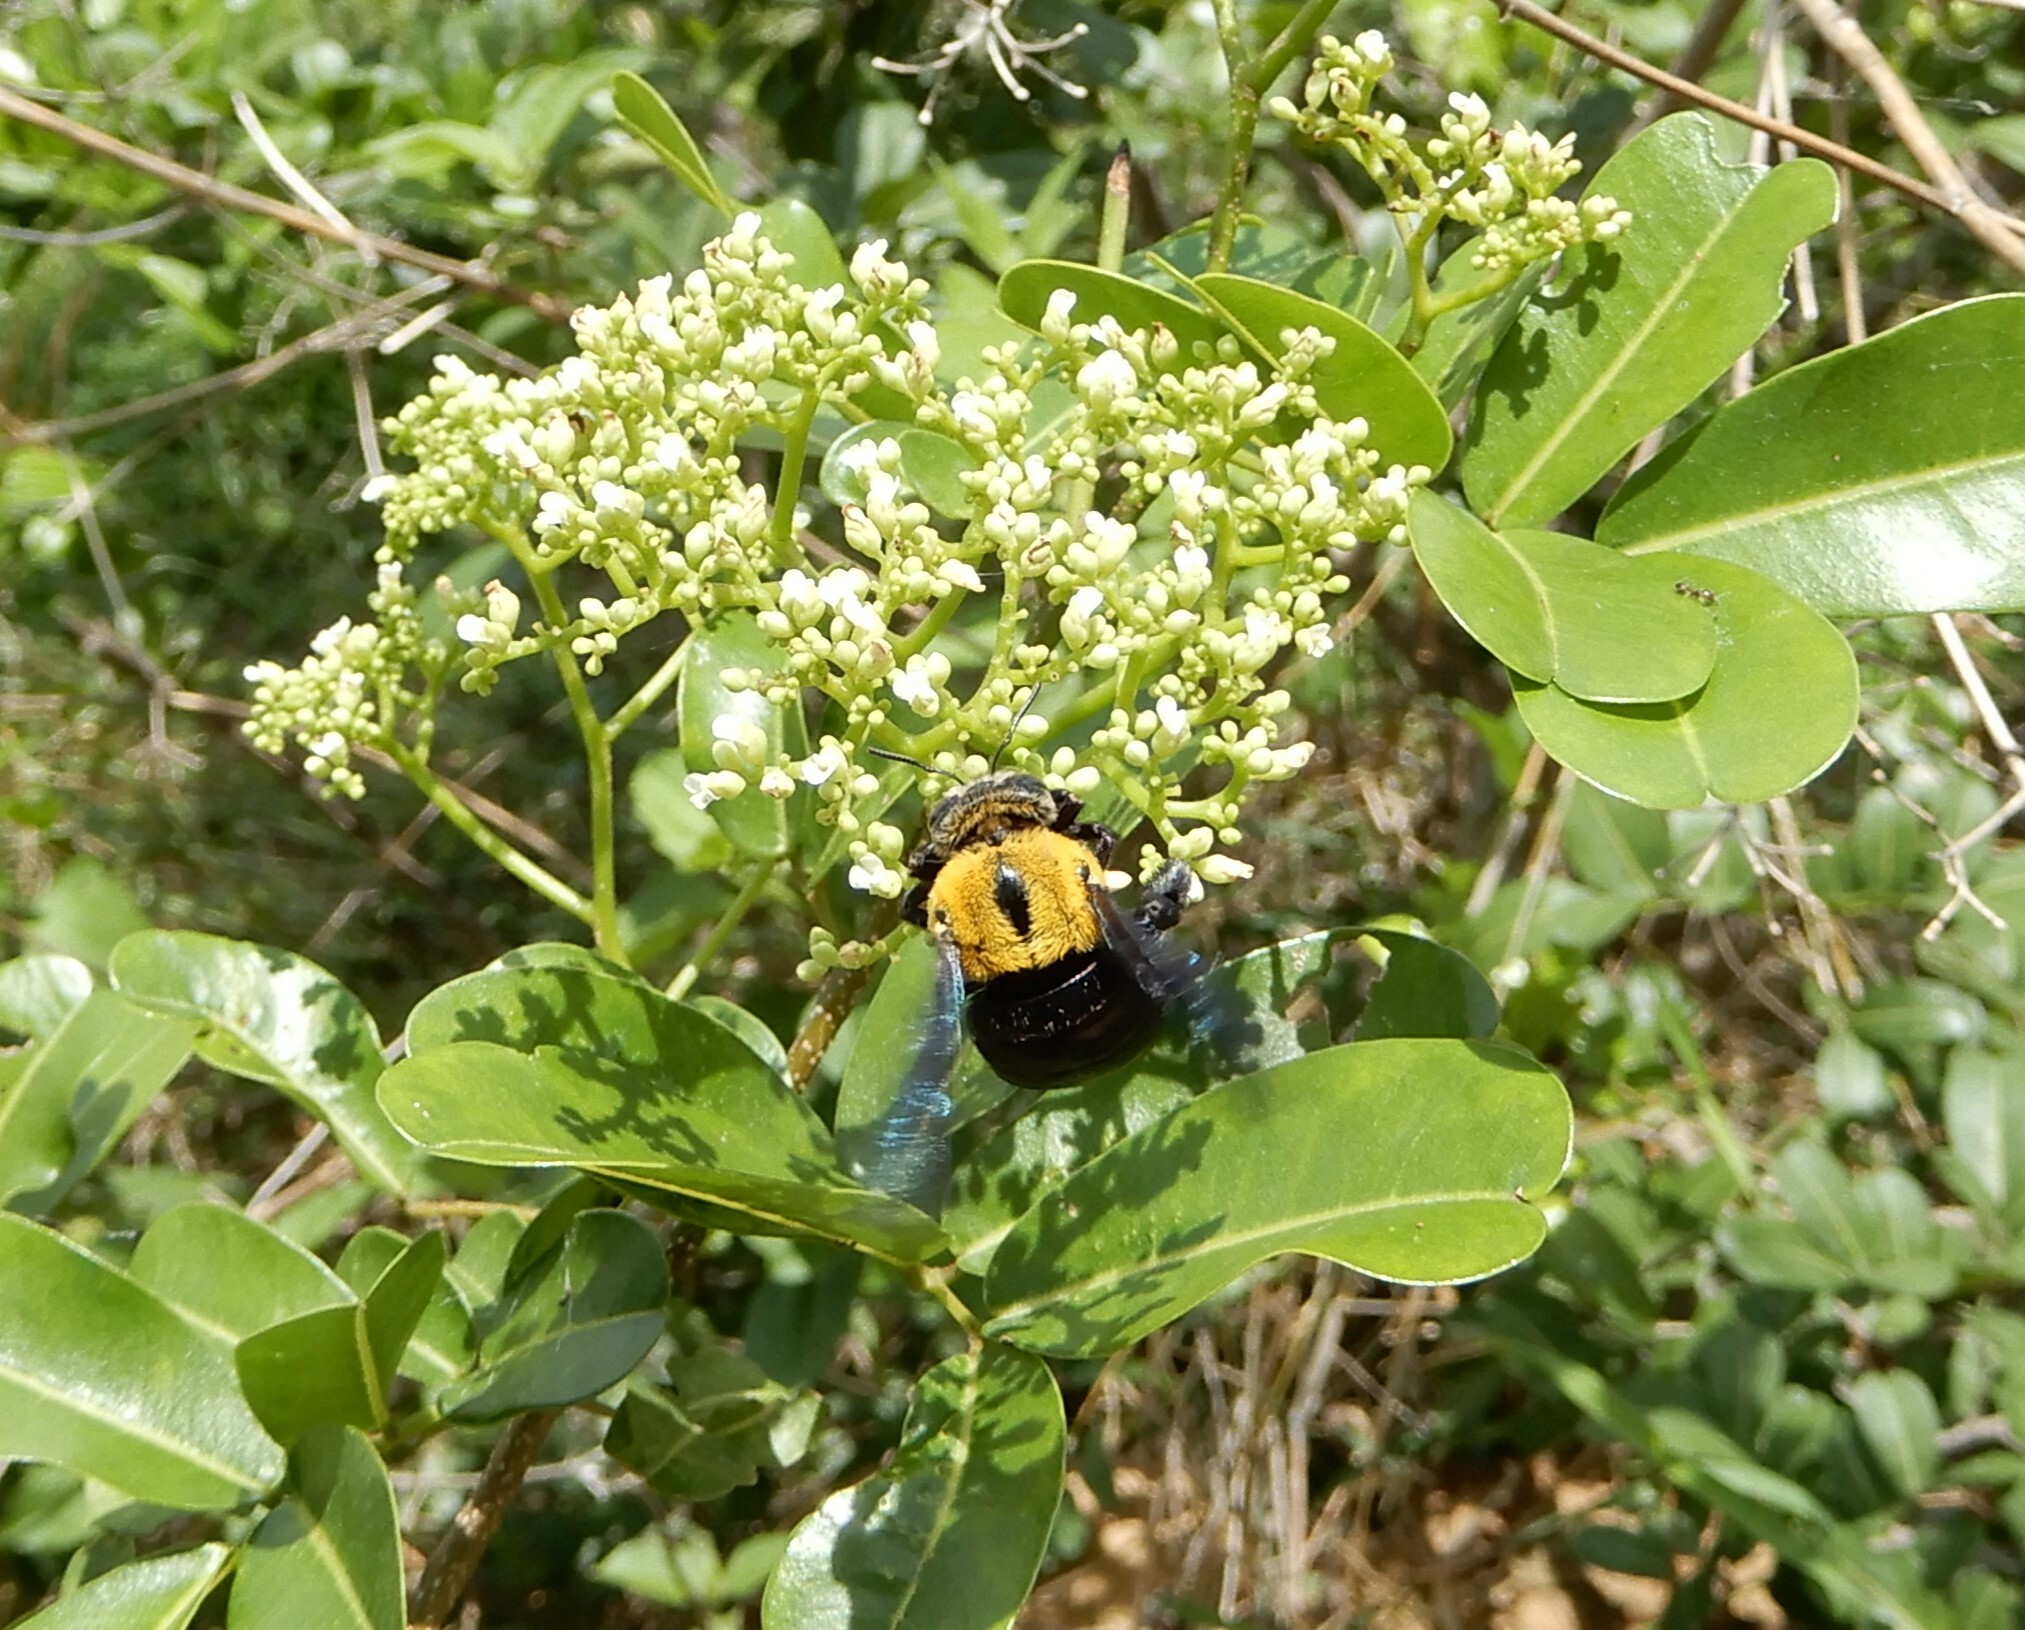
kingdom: Animalia
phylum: Arthropoda
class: Insecta
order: Hymenoptera
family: Apidae
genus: Xylocopa
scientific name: Xylocopa minor
